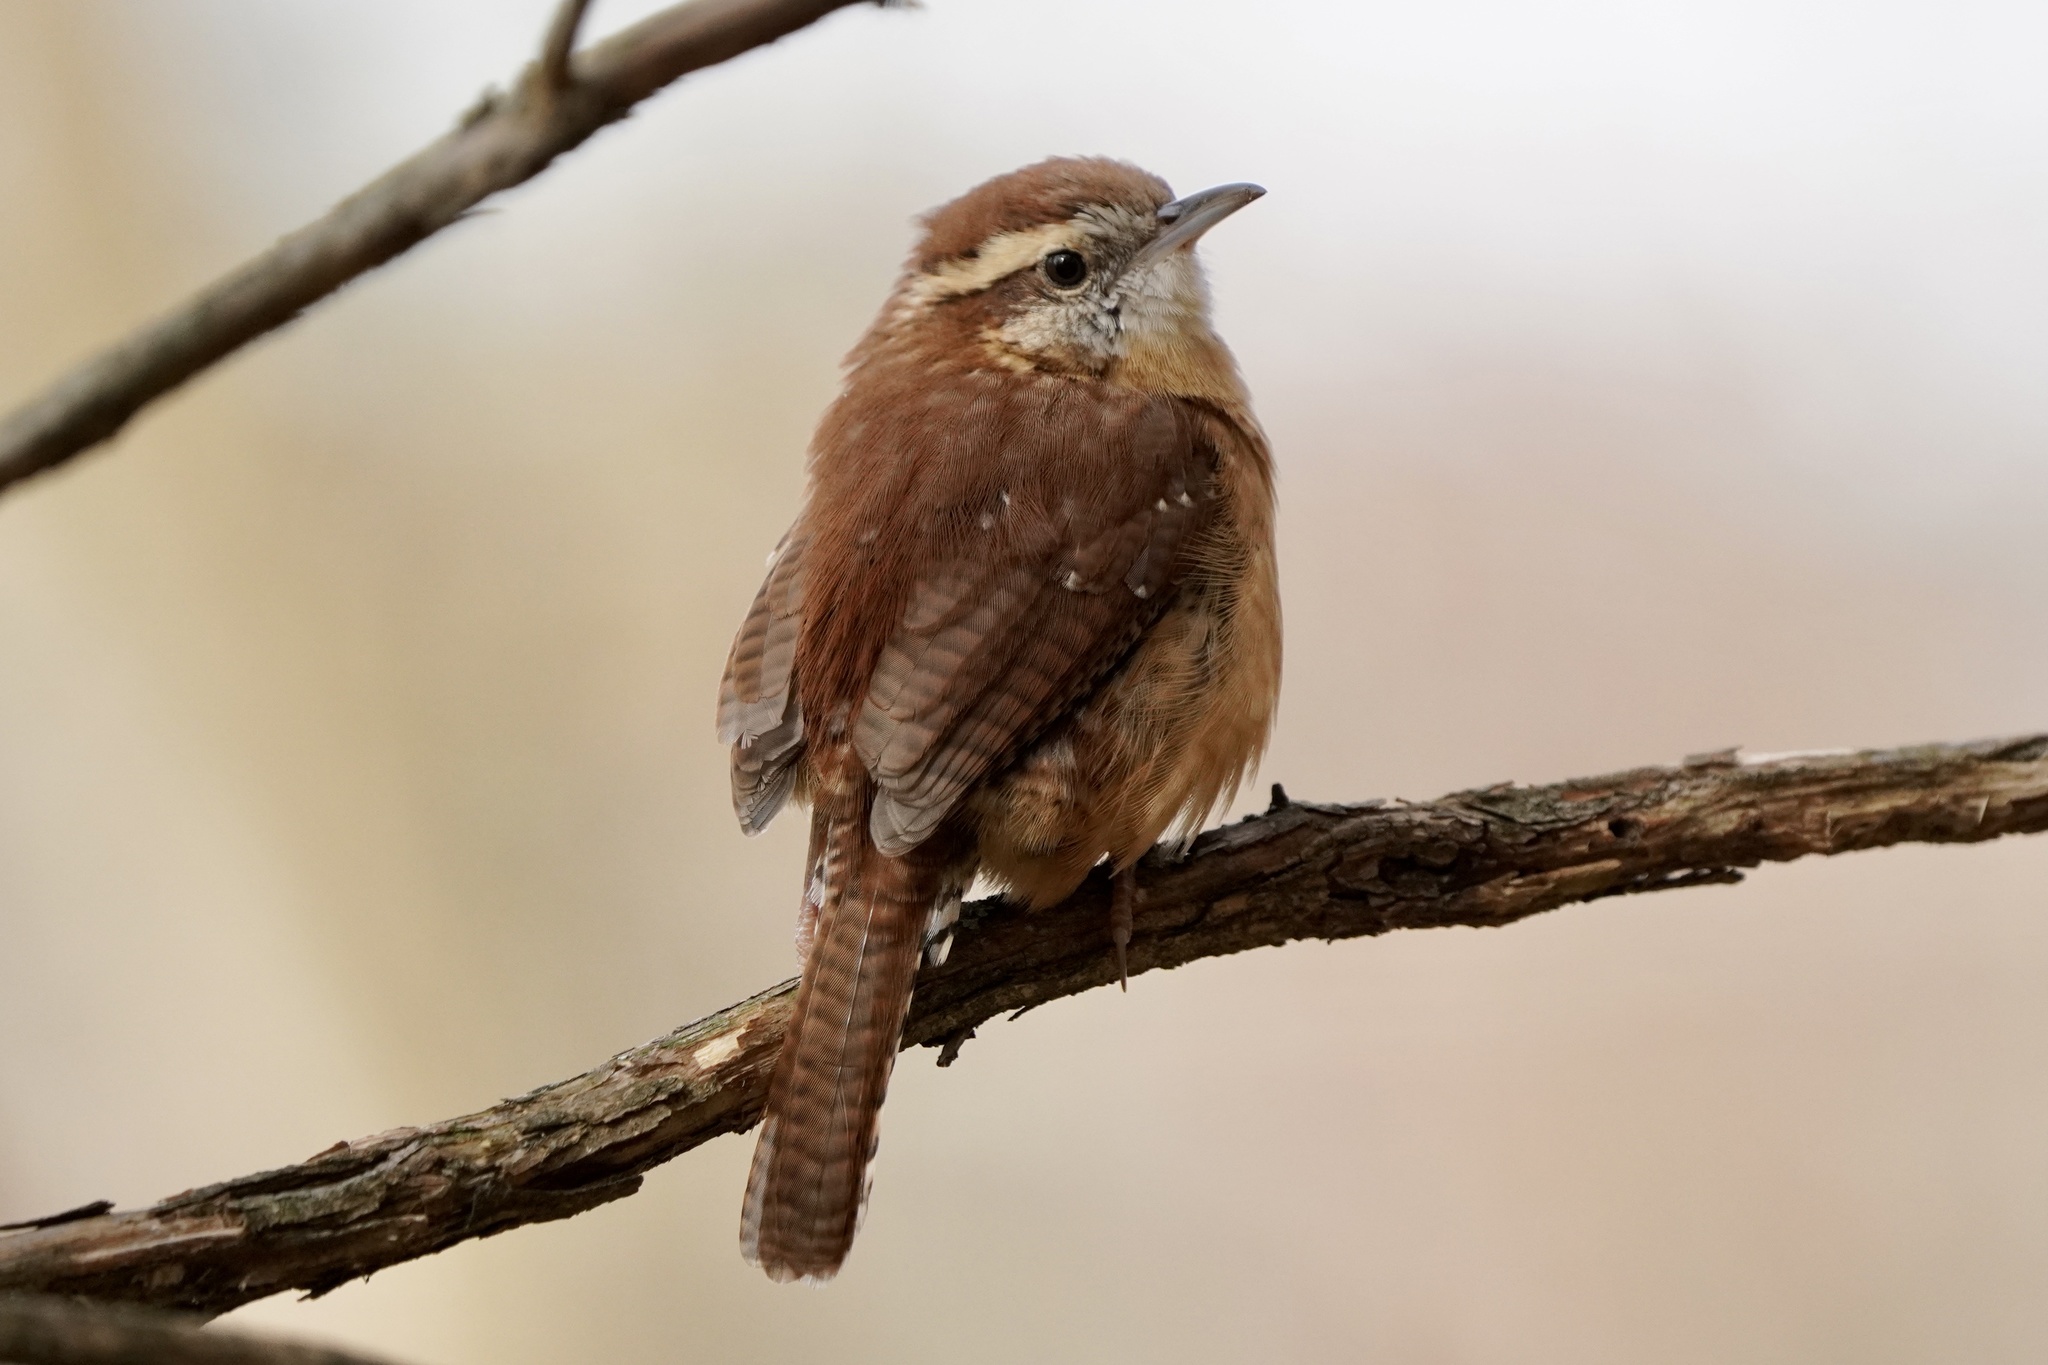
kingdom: Animalia
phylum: Chordata
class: Aves
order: Passeriformes
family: Troglodytidae
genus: Thryothorus
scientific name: Thryothorus ludovicianus
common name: Carolina wren
